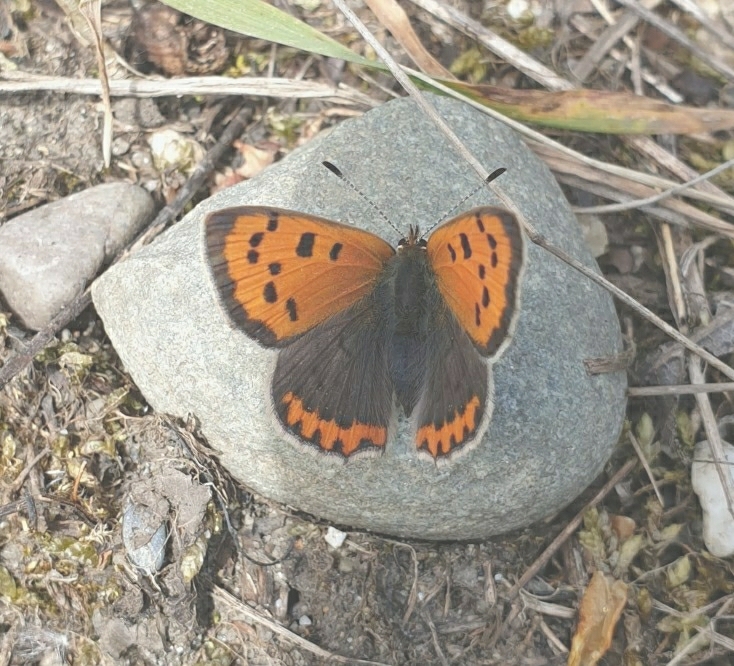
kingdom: Animalia
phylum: Arthropoda
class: Insecta
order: Lepidoptera
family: Lycaenidae
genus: Lycaena
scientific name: Lycaena phlaeas
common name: Small copper
